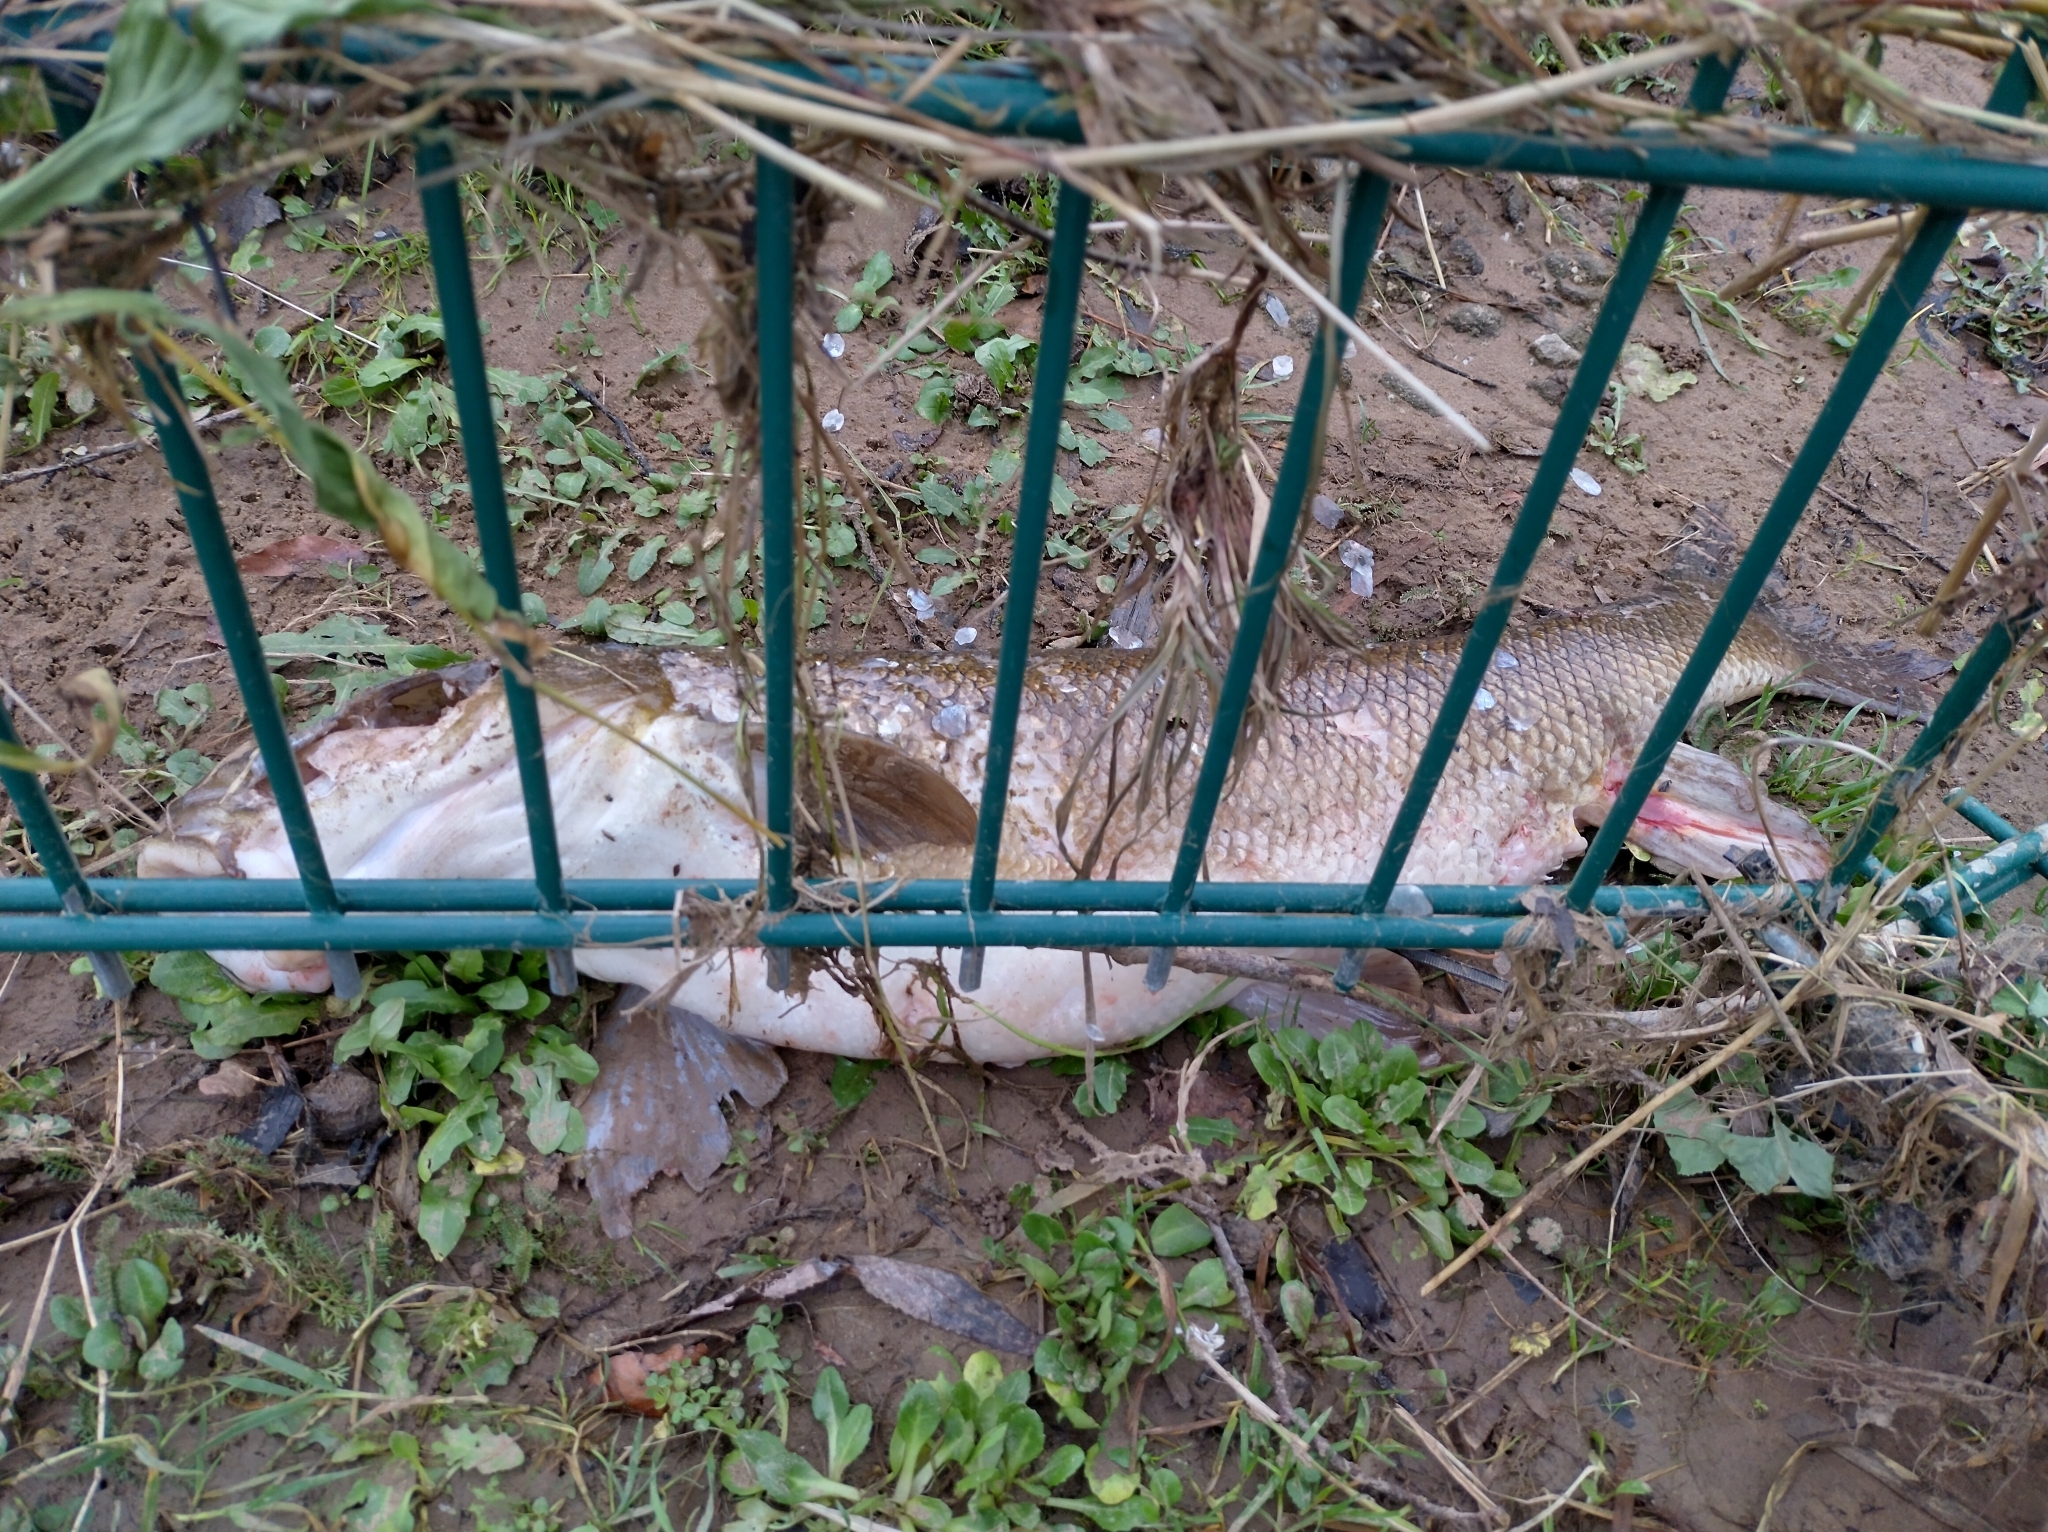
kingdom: Animalia
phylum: Chordata
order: Cypriniformes
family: Cyprinidae
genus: Barbus
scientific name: Barbus barbus
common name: Barbel
